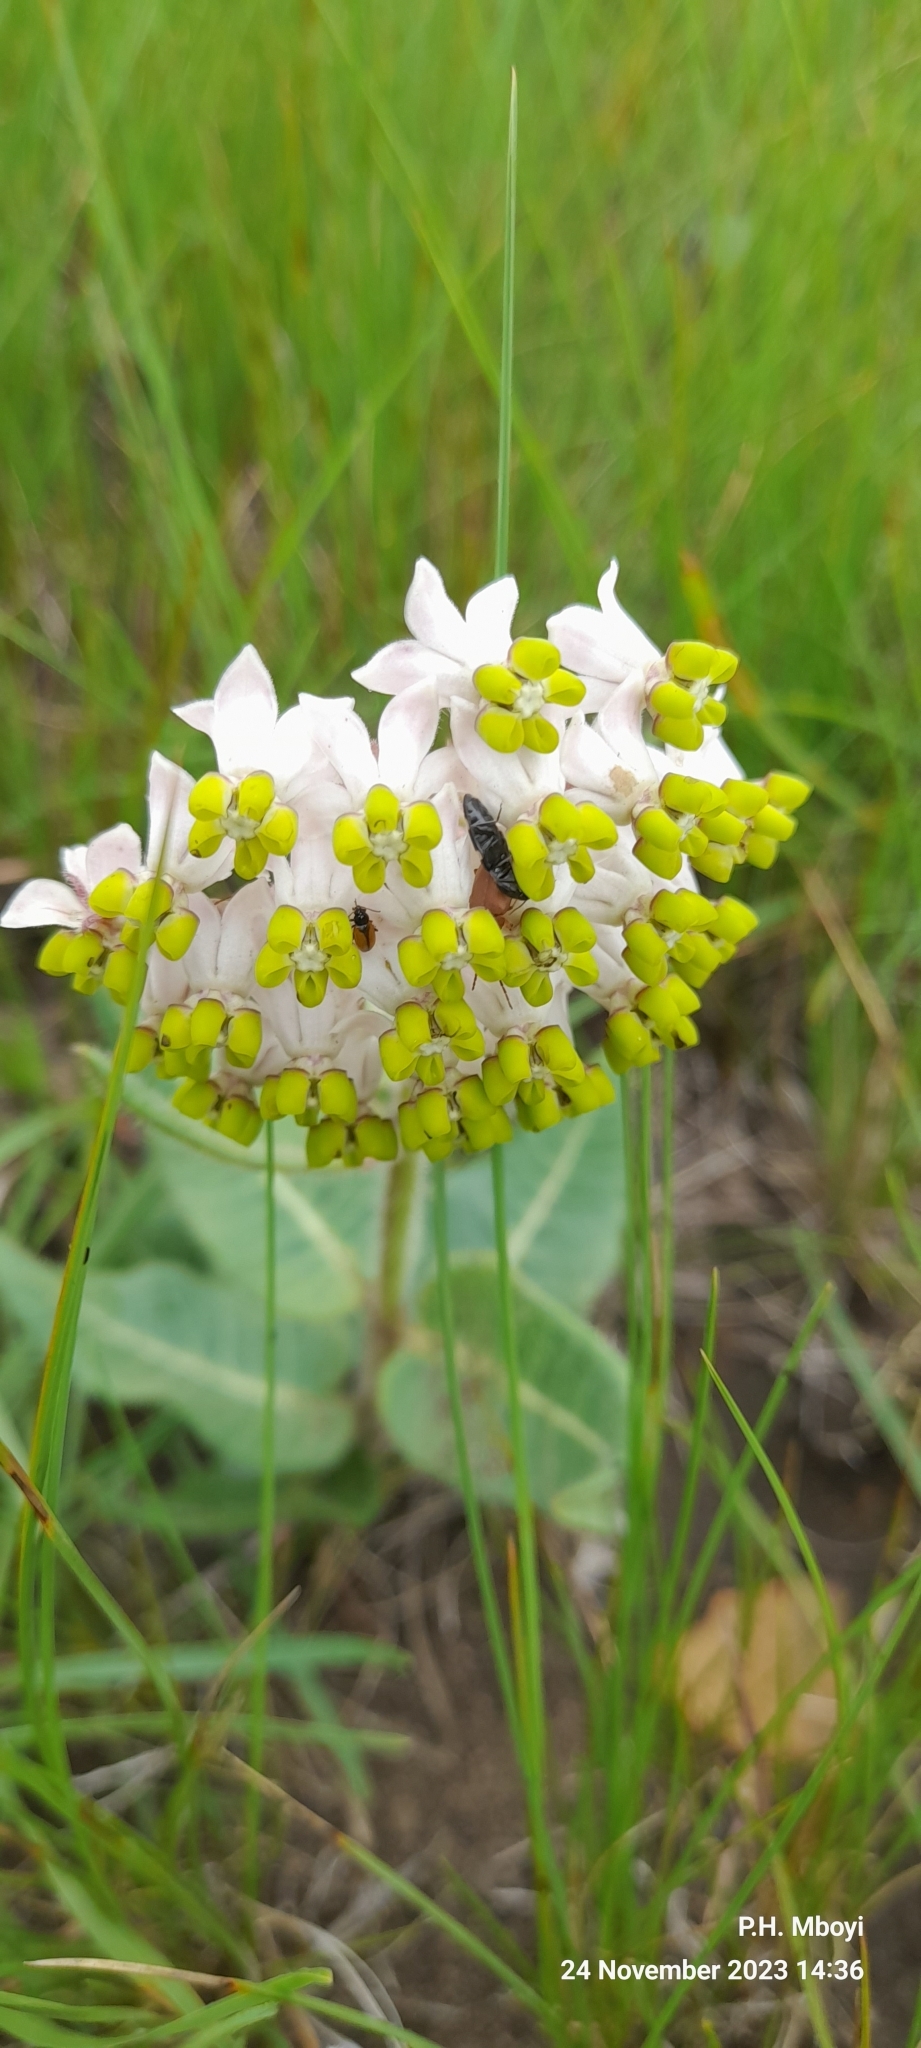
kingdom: Plantae
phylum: Tracheophyta
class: Magnoliopsida
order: Gentianales
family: Apocynaceae
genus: Asclepias
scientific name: Asclepias albens
